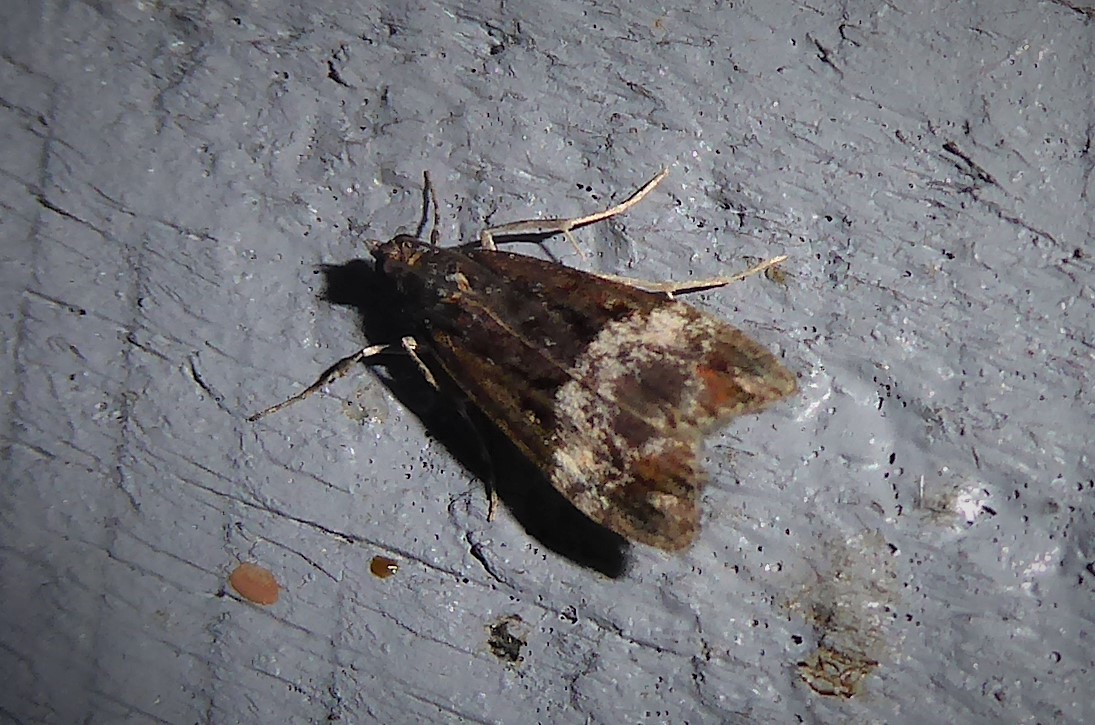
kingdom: Animalia
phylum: Arthropoda
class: Insecta
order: Lepidoptera
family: Crambidae
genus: Scoparia
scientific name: Scoparia minusculalis
